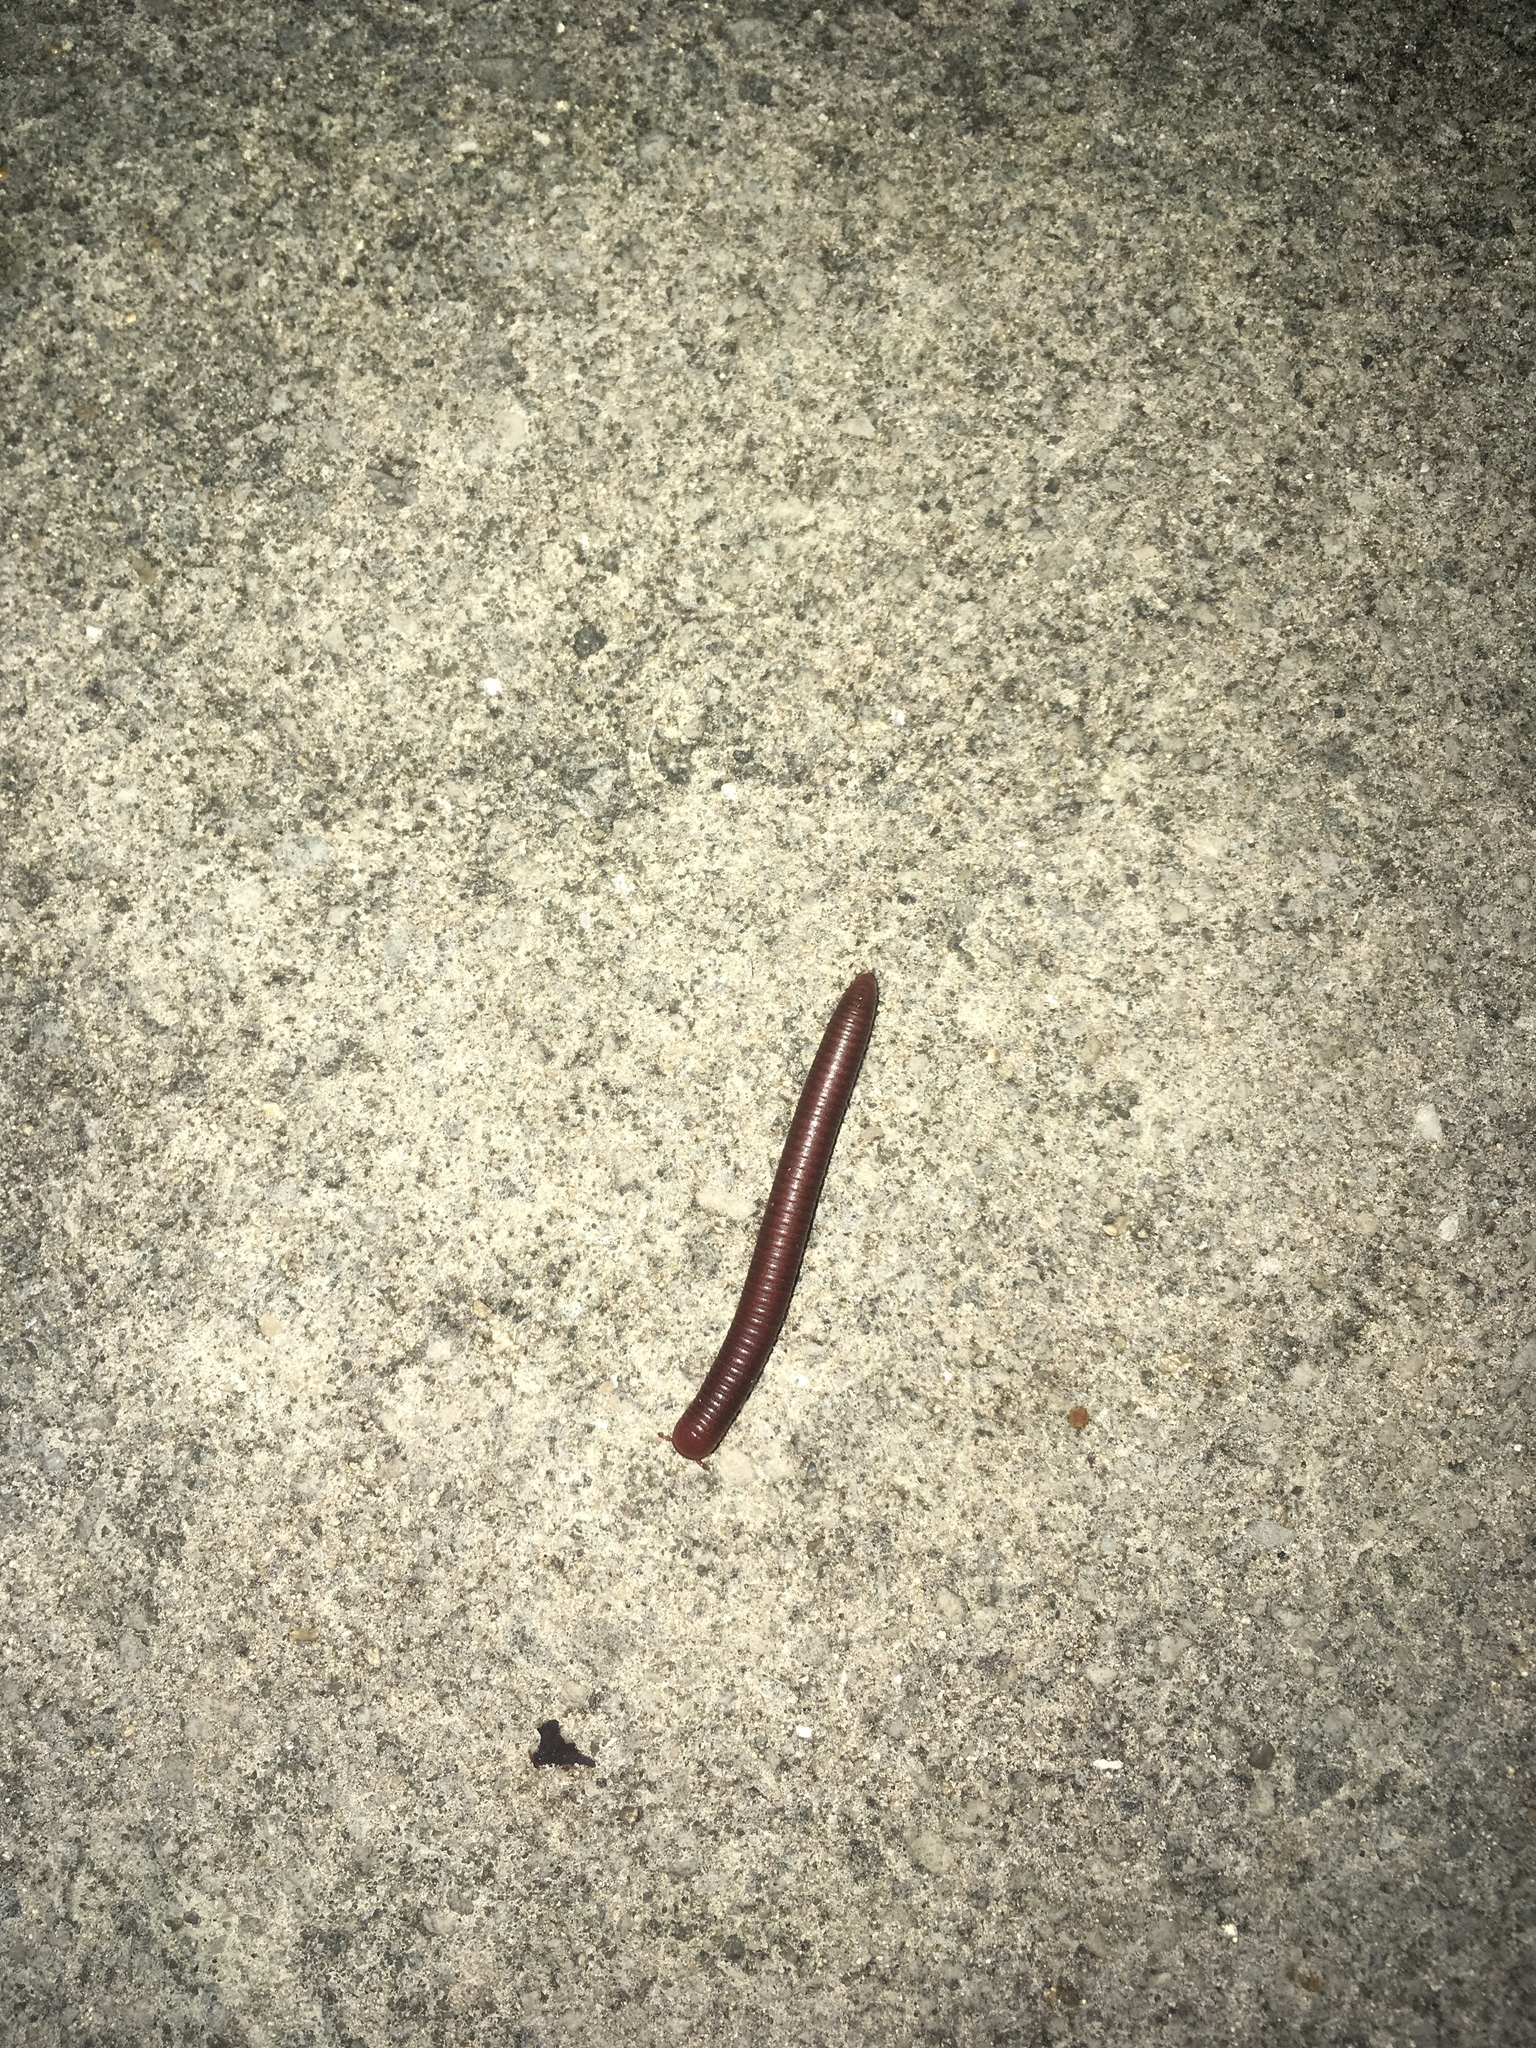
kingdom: Animalia
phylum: Arthropoda
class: Diplopoda
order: Spirobolida
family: Pachybolidae
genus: Trigoniulus
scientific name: Trigoniulus corallinus
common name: Millipede
